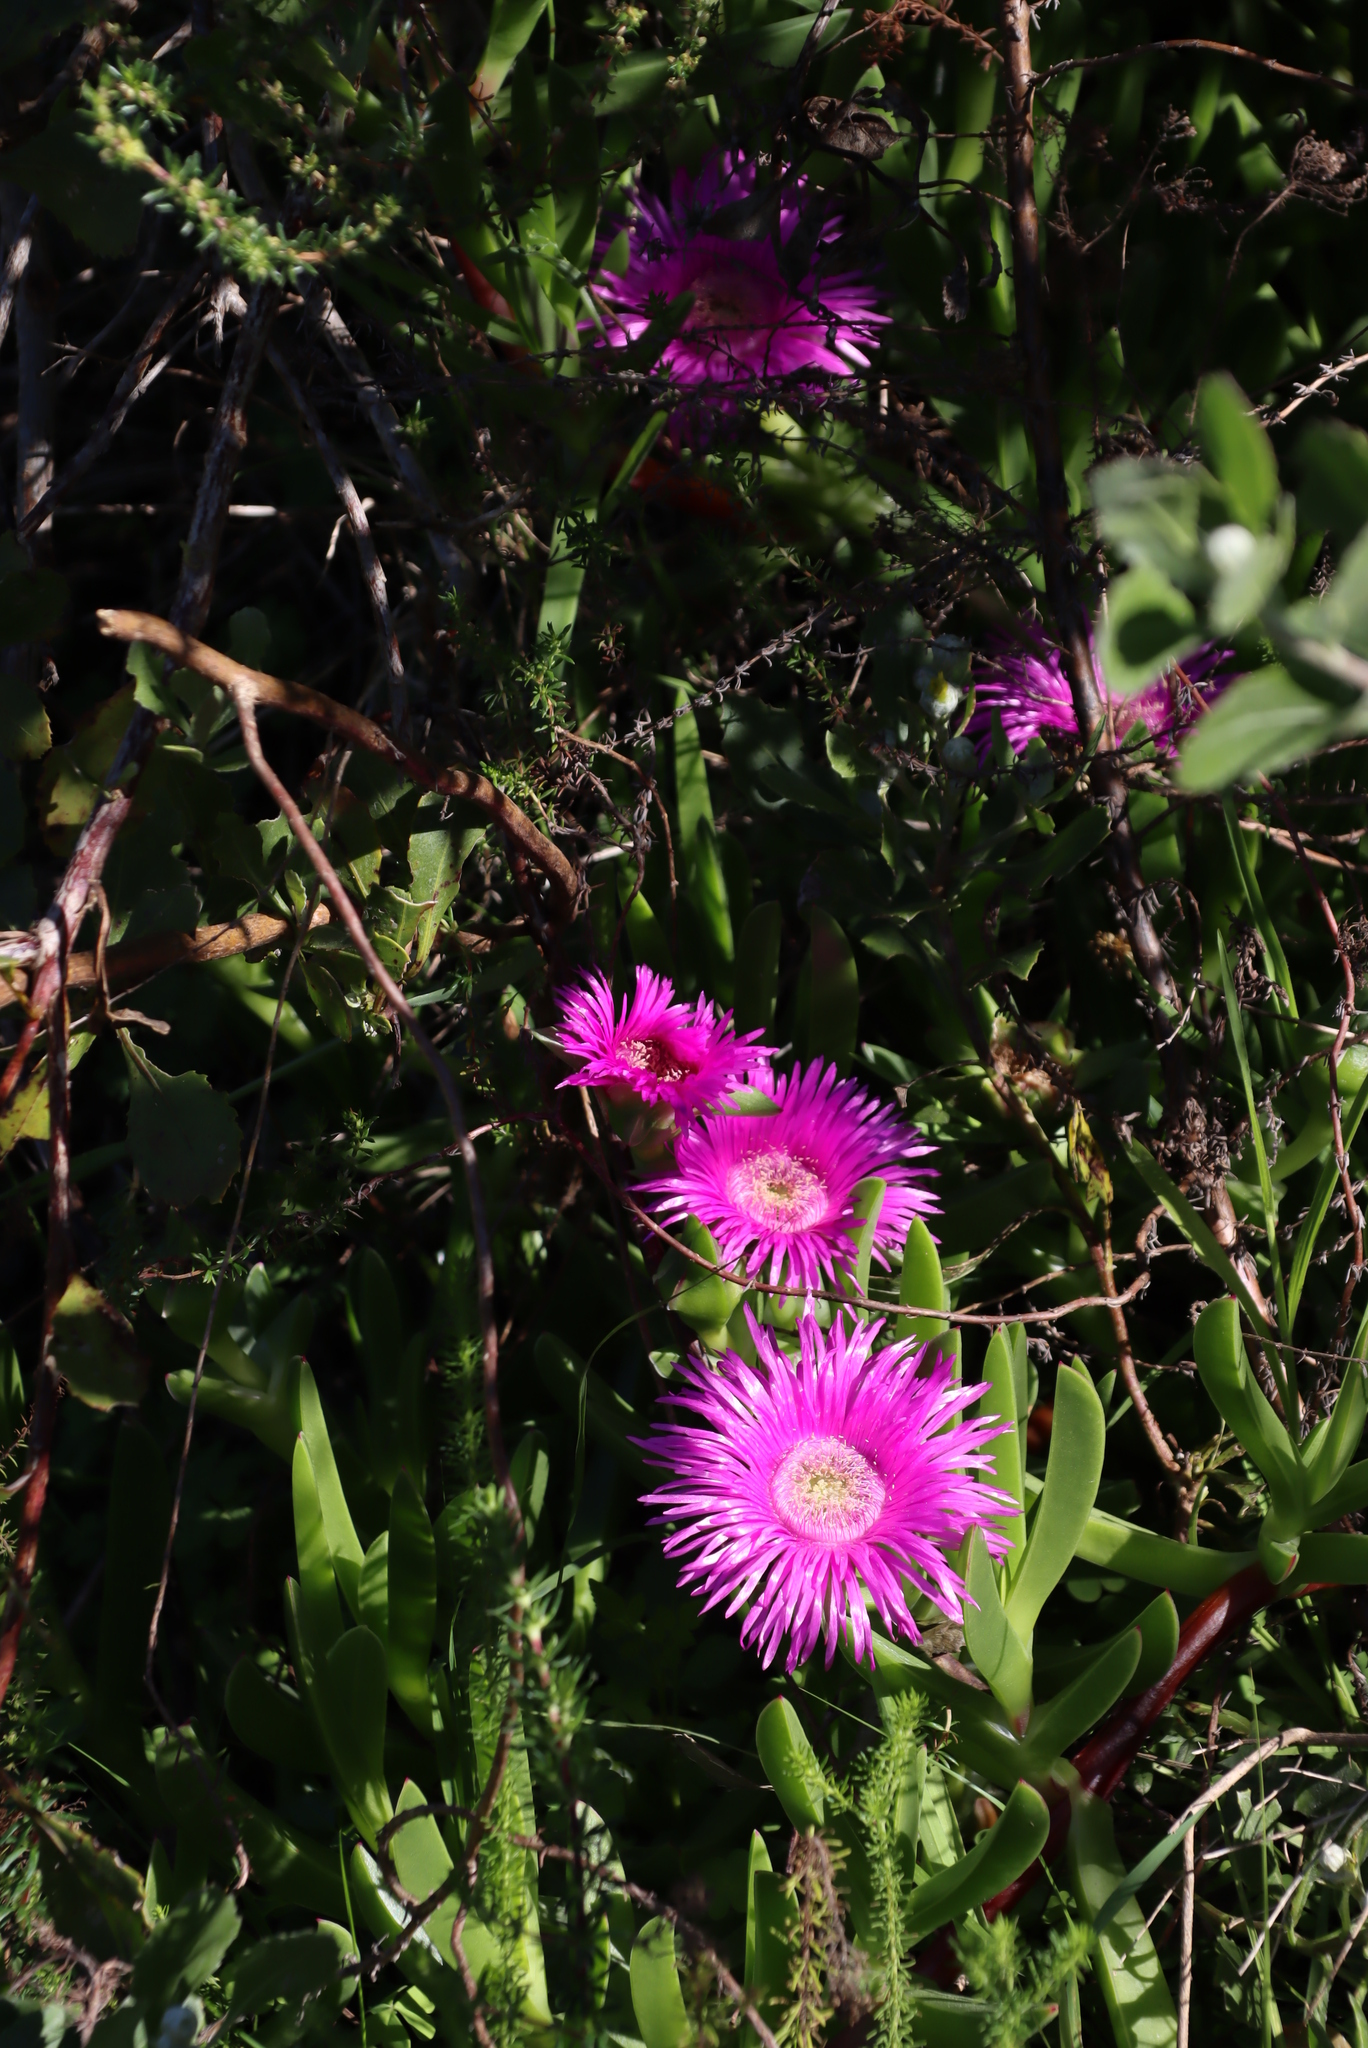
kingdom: Plantae
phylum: Tracheophyta
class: Magnoliopsida
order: Caryophyllales
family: Aizoaceae
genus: Carpobrotus
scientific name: Carpobrotus deliciosus
